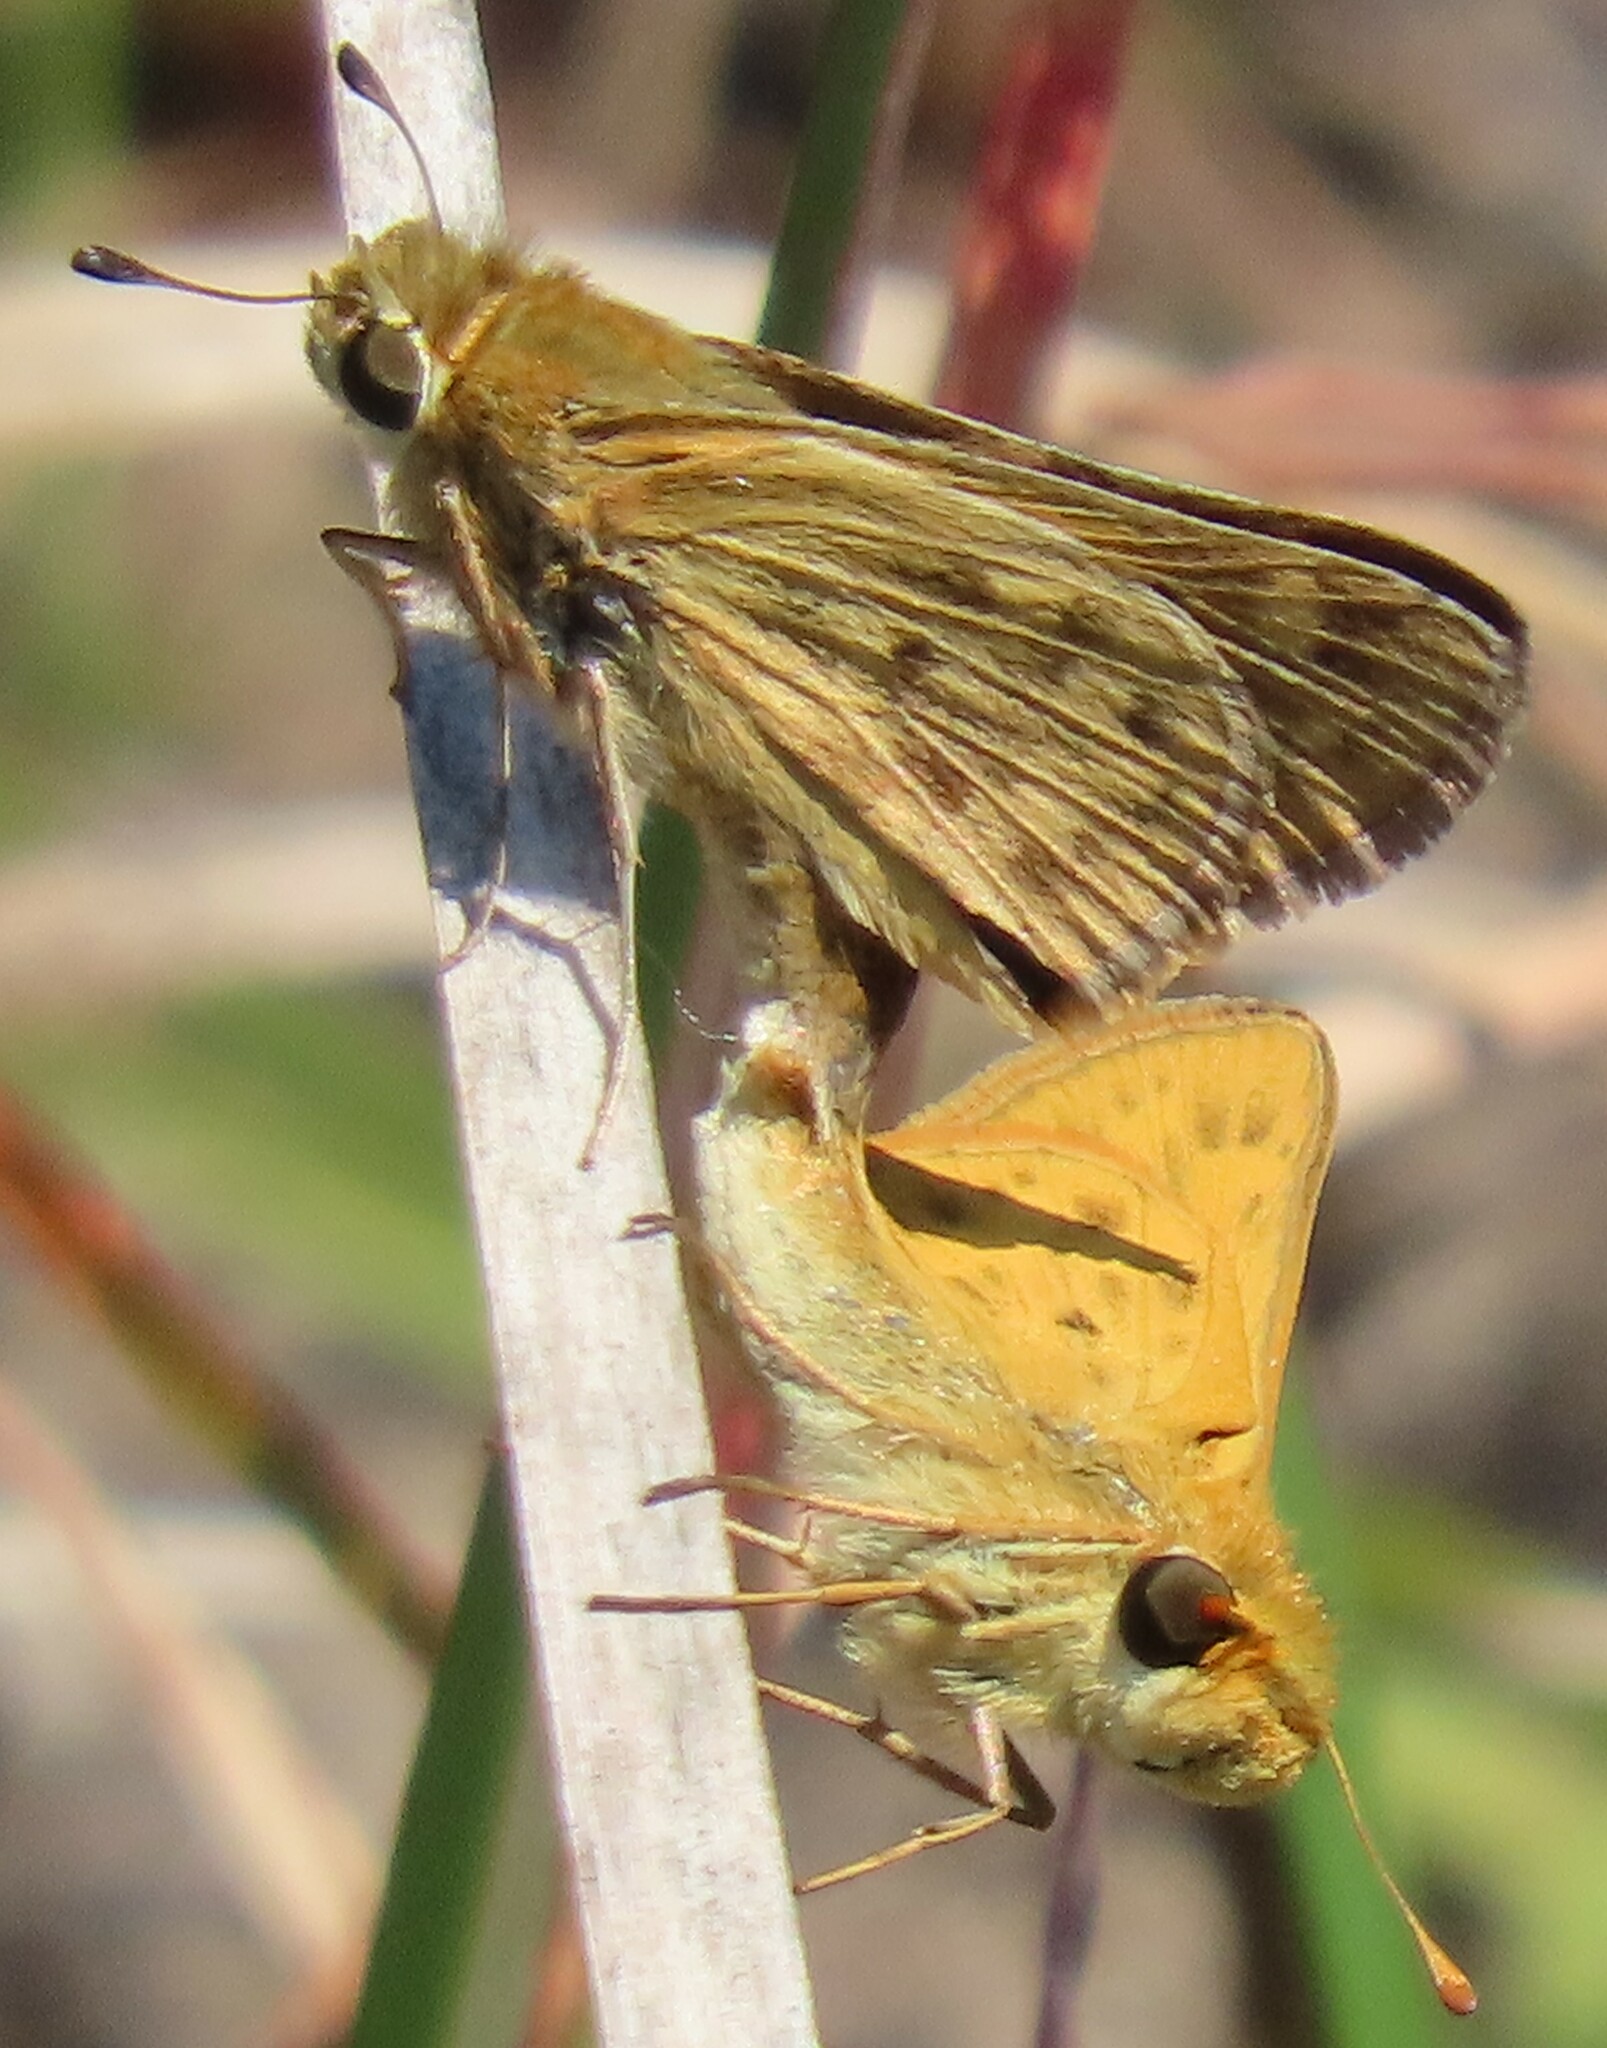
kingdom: Animalia
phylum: Arthropoda
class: Insecta
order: Lepidoptera
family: Hesperiidae
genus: Hylephila
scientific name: Hylephila phyleus
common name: Fiery skipper
